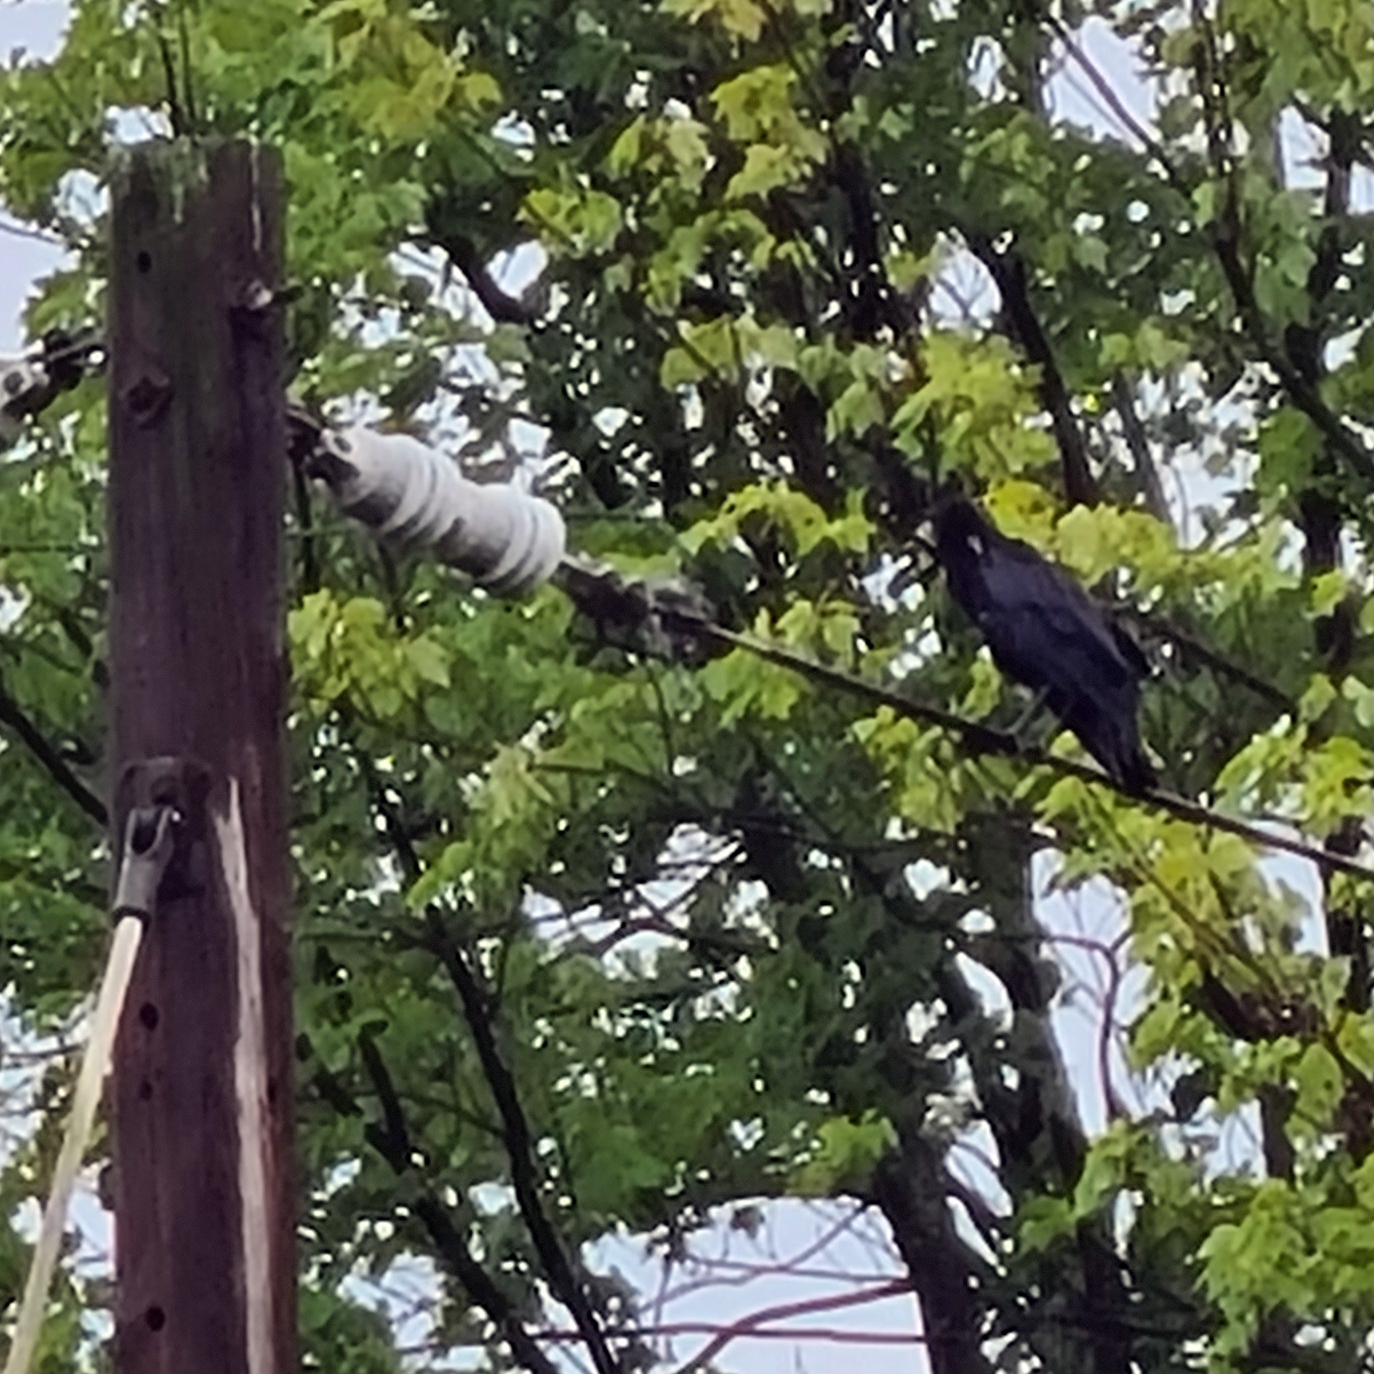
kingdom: Animalia
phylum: Chordata
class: Aves
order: Passeriformes
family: Corvidae
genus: Corvus
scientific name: Corvus brachyrhynchos
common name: American crow
